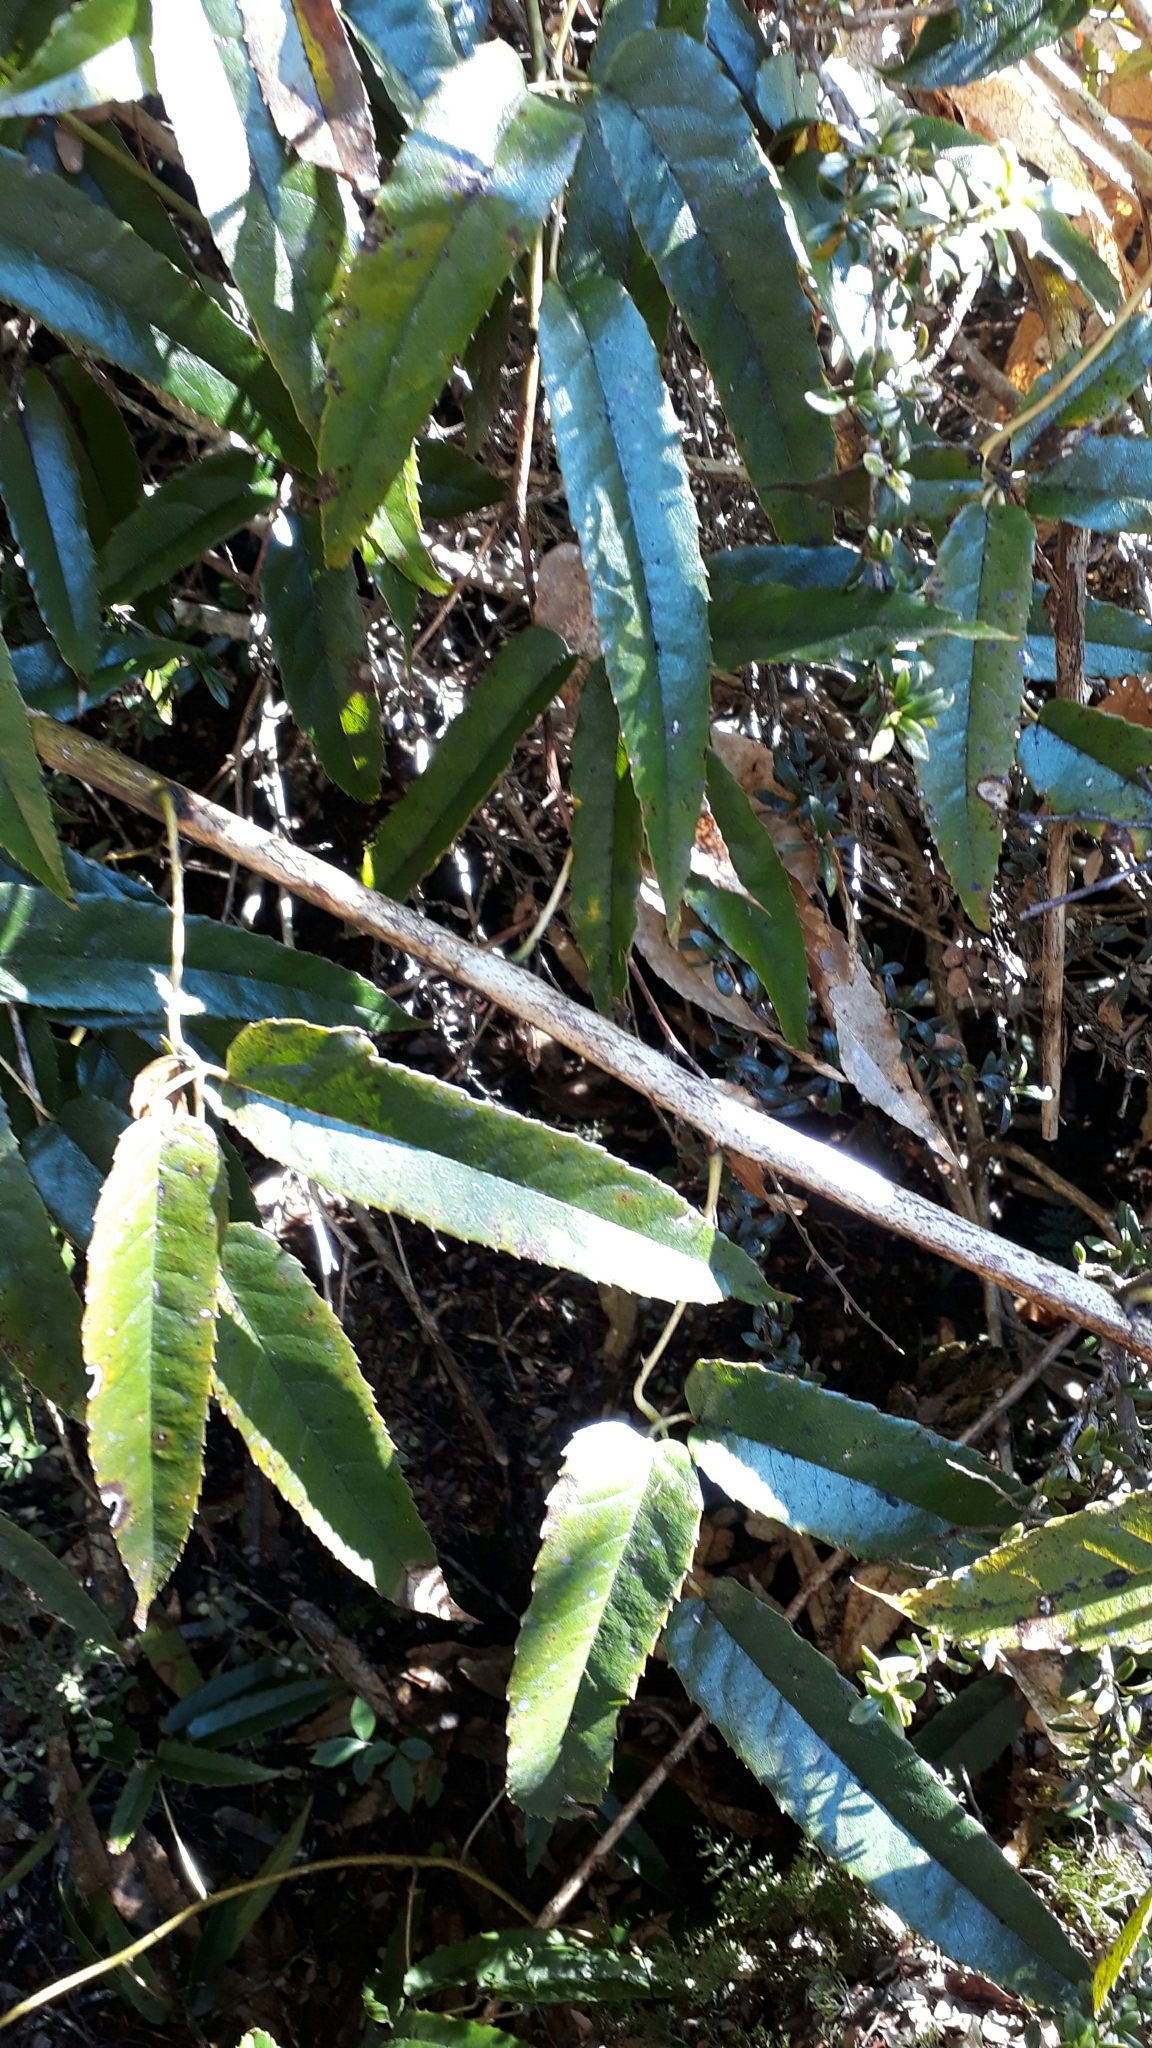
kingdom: Plantae
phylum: Tracheophyta
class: Magnoliopsida
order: Rosales
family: Rosaceae
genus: Rubus
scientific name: Rubus cissoides
